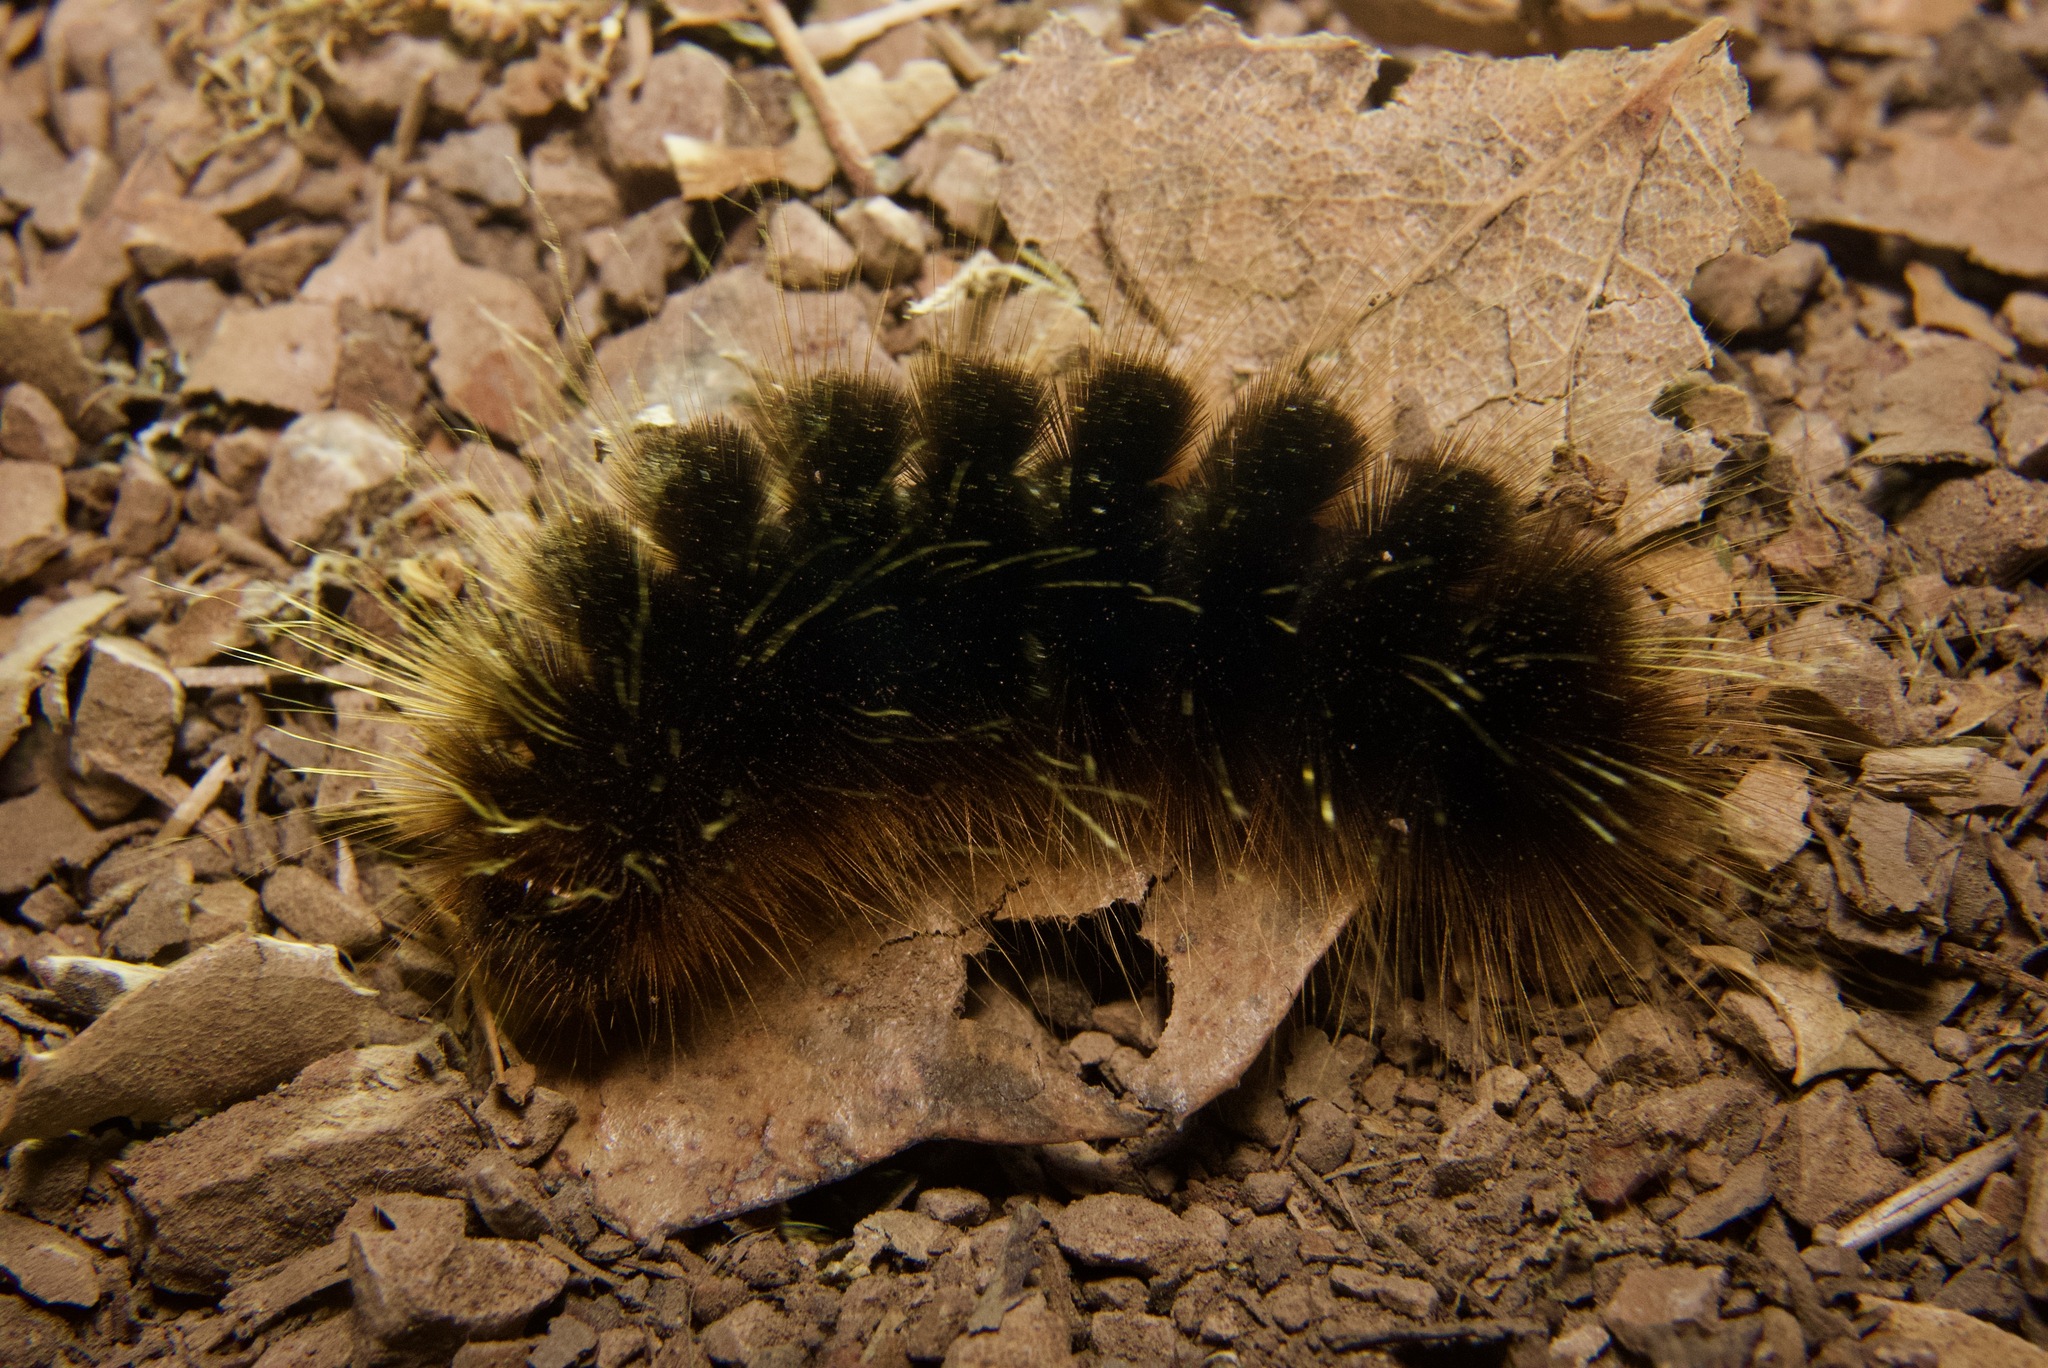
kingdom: Animalia
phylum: Arthropoda
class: Insecta
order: Lepidoptera
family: Erebidae
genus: Hemihyalea
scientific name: Hemihyalea edwardsii
